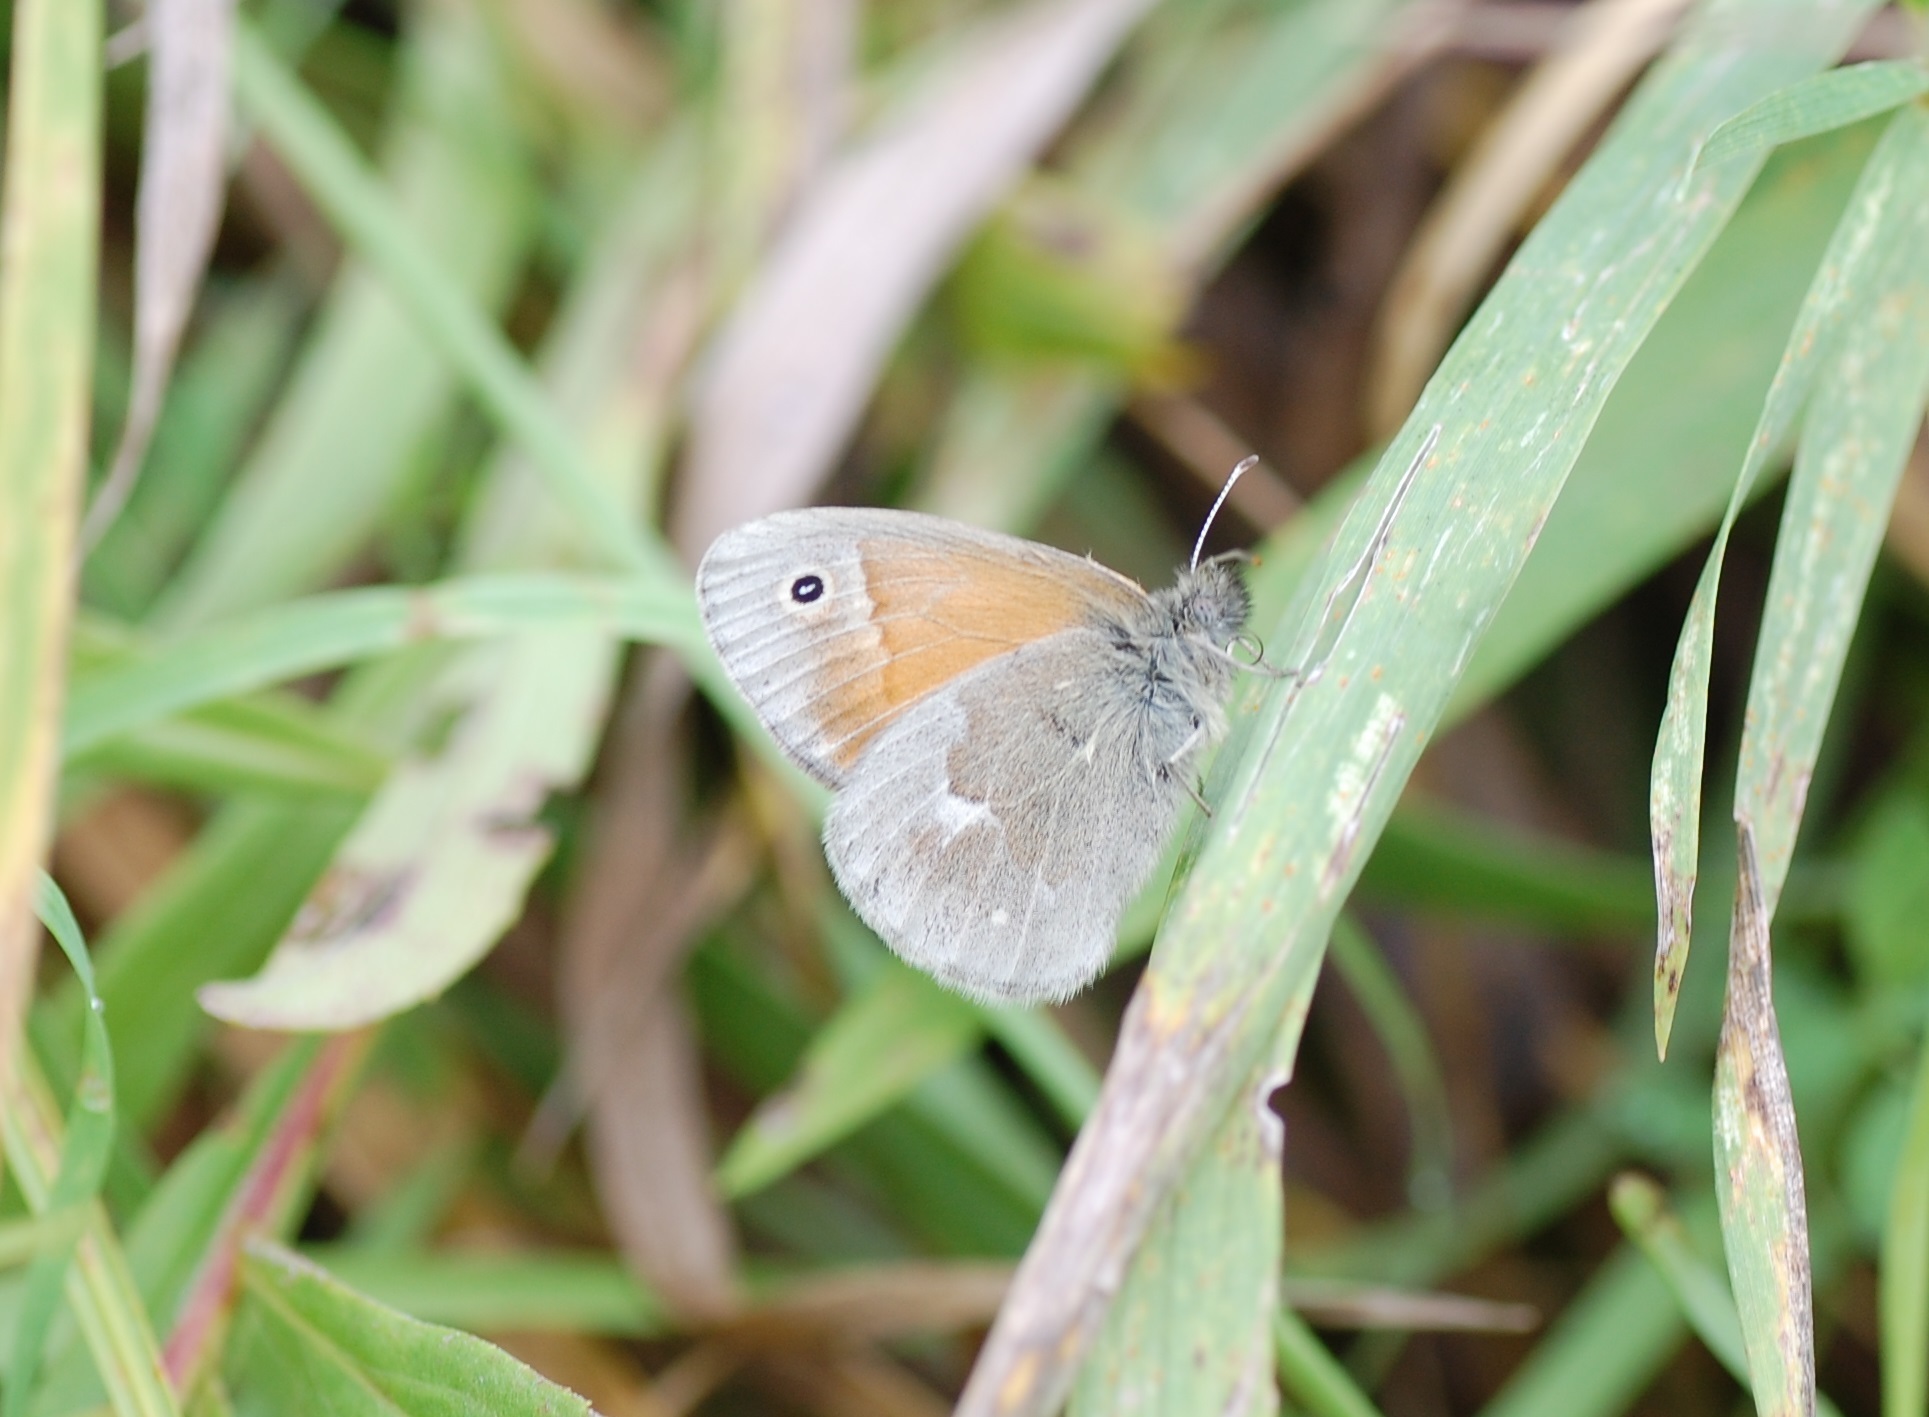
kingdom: Animalia
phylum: Arthropoda
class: Insecta
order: Lepidoptera
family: Nymphalidae
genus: Coenonympha
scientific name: Coenonympha california
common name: Common ringlet
